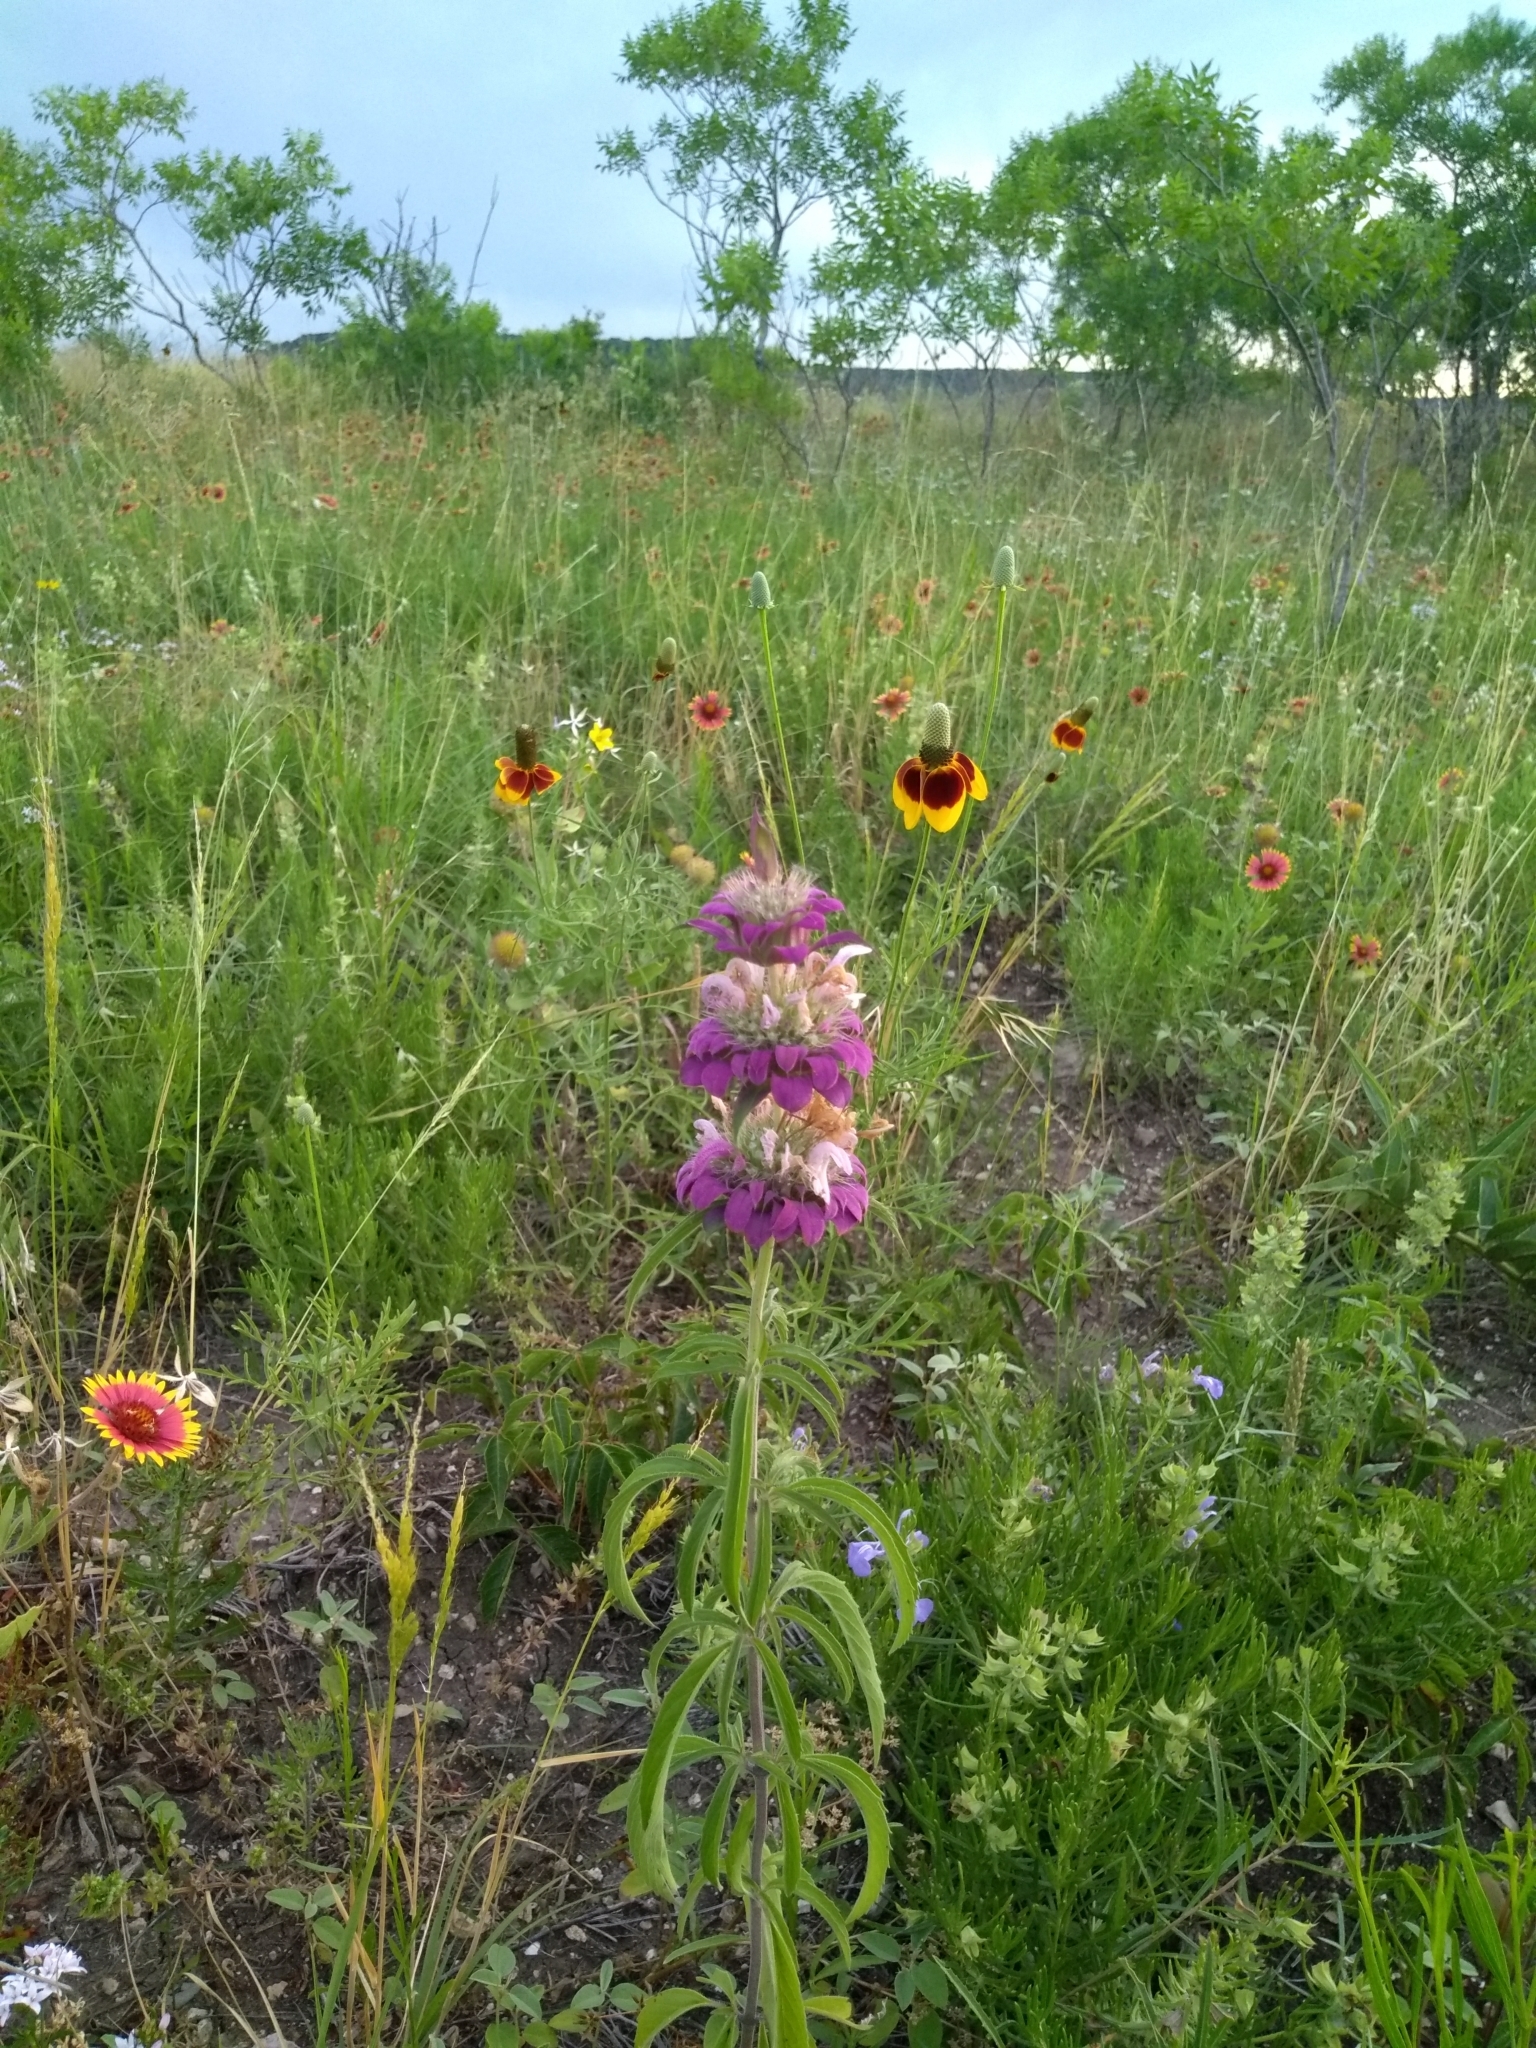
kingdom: Plantae
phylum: Tracheophyta
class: Magnoliopsida
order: Lamiales
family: Lamiaceae
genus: Monarda
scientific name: Monarda citriodora
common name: Lemon beebalm
